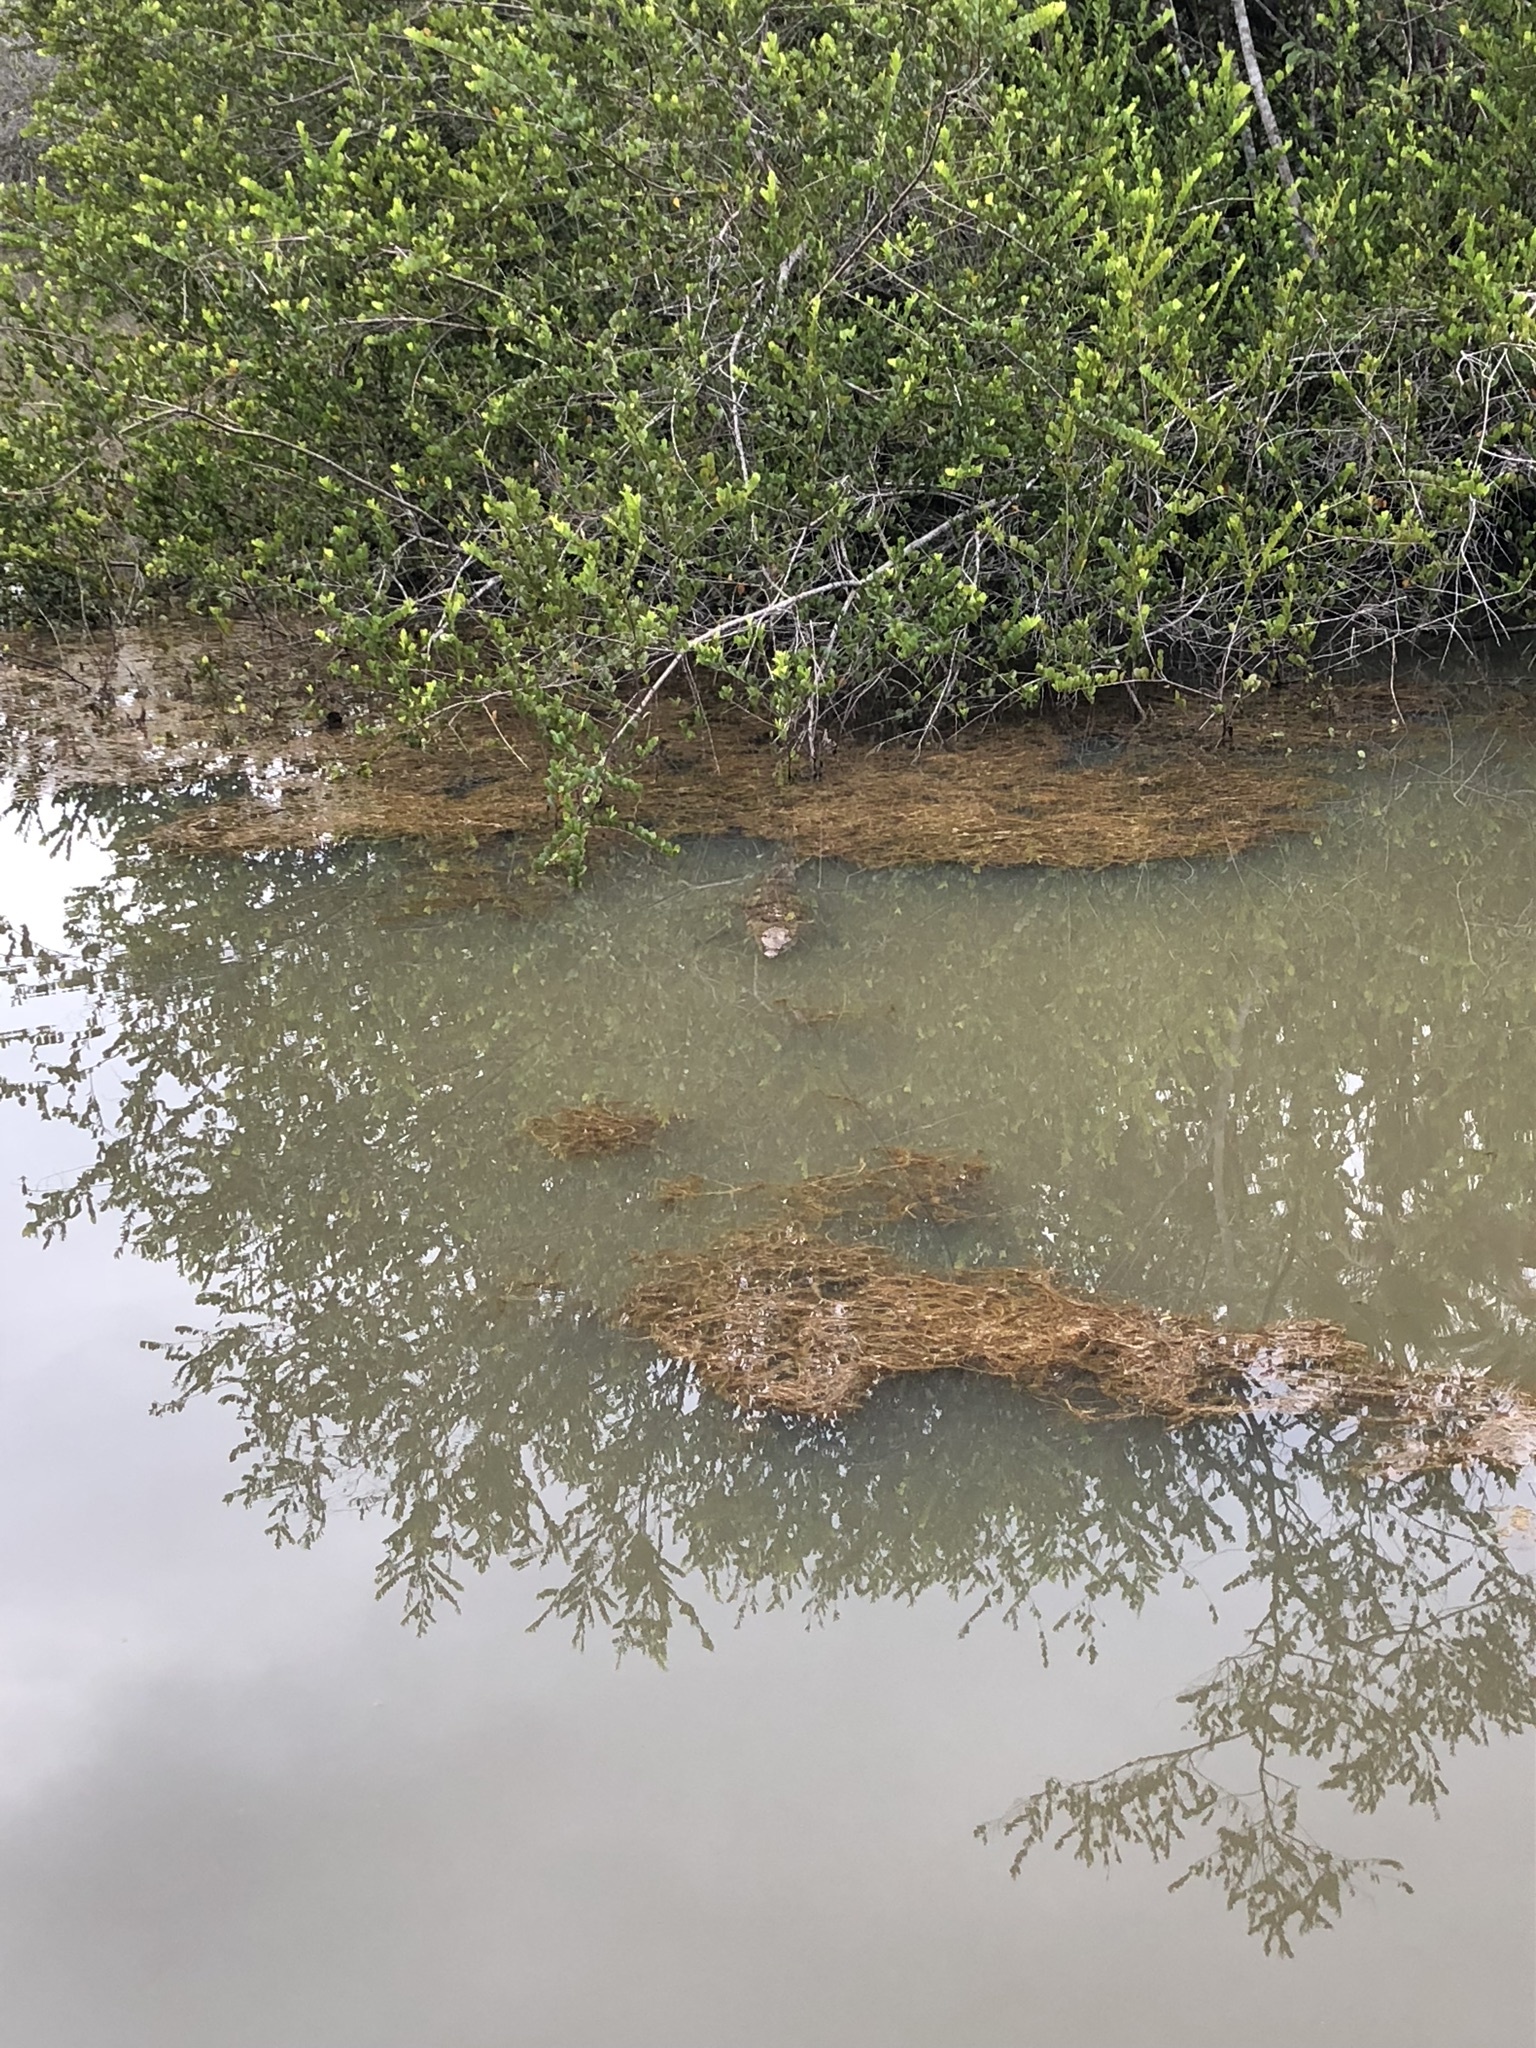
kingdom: Animalia
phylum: Chordata
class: Crocodylia
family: Crocodylidae
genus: Crocodylus
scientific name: Crocodylus acutus
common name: American crocodile
